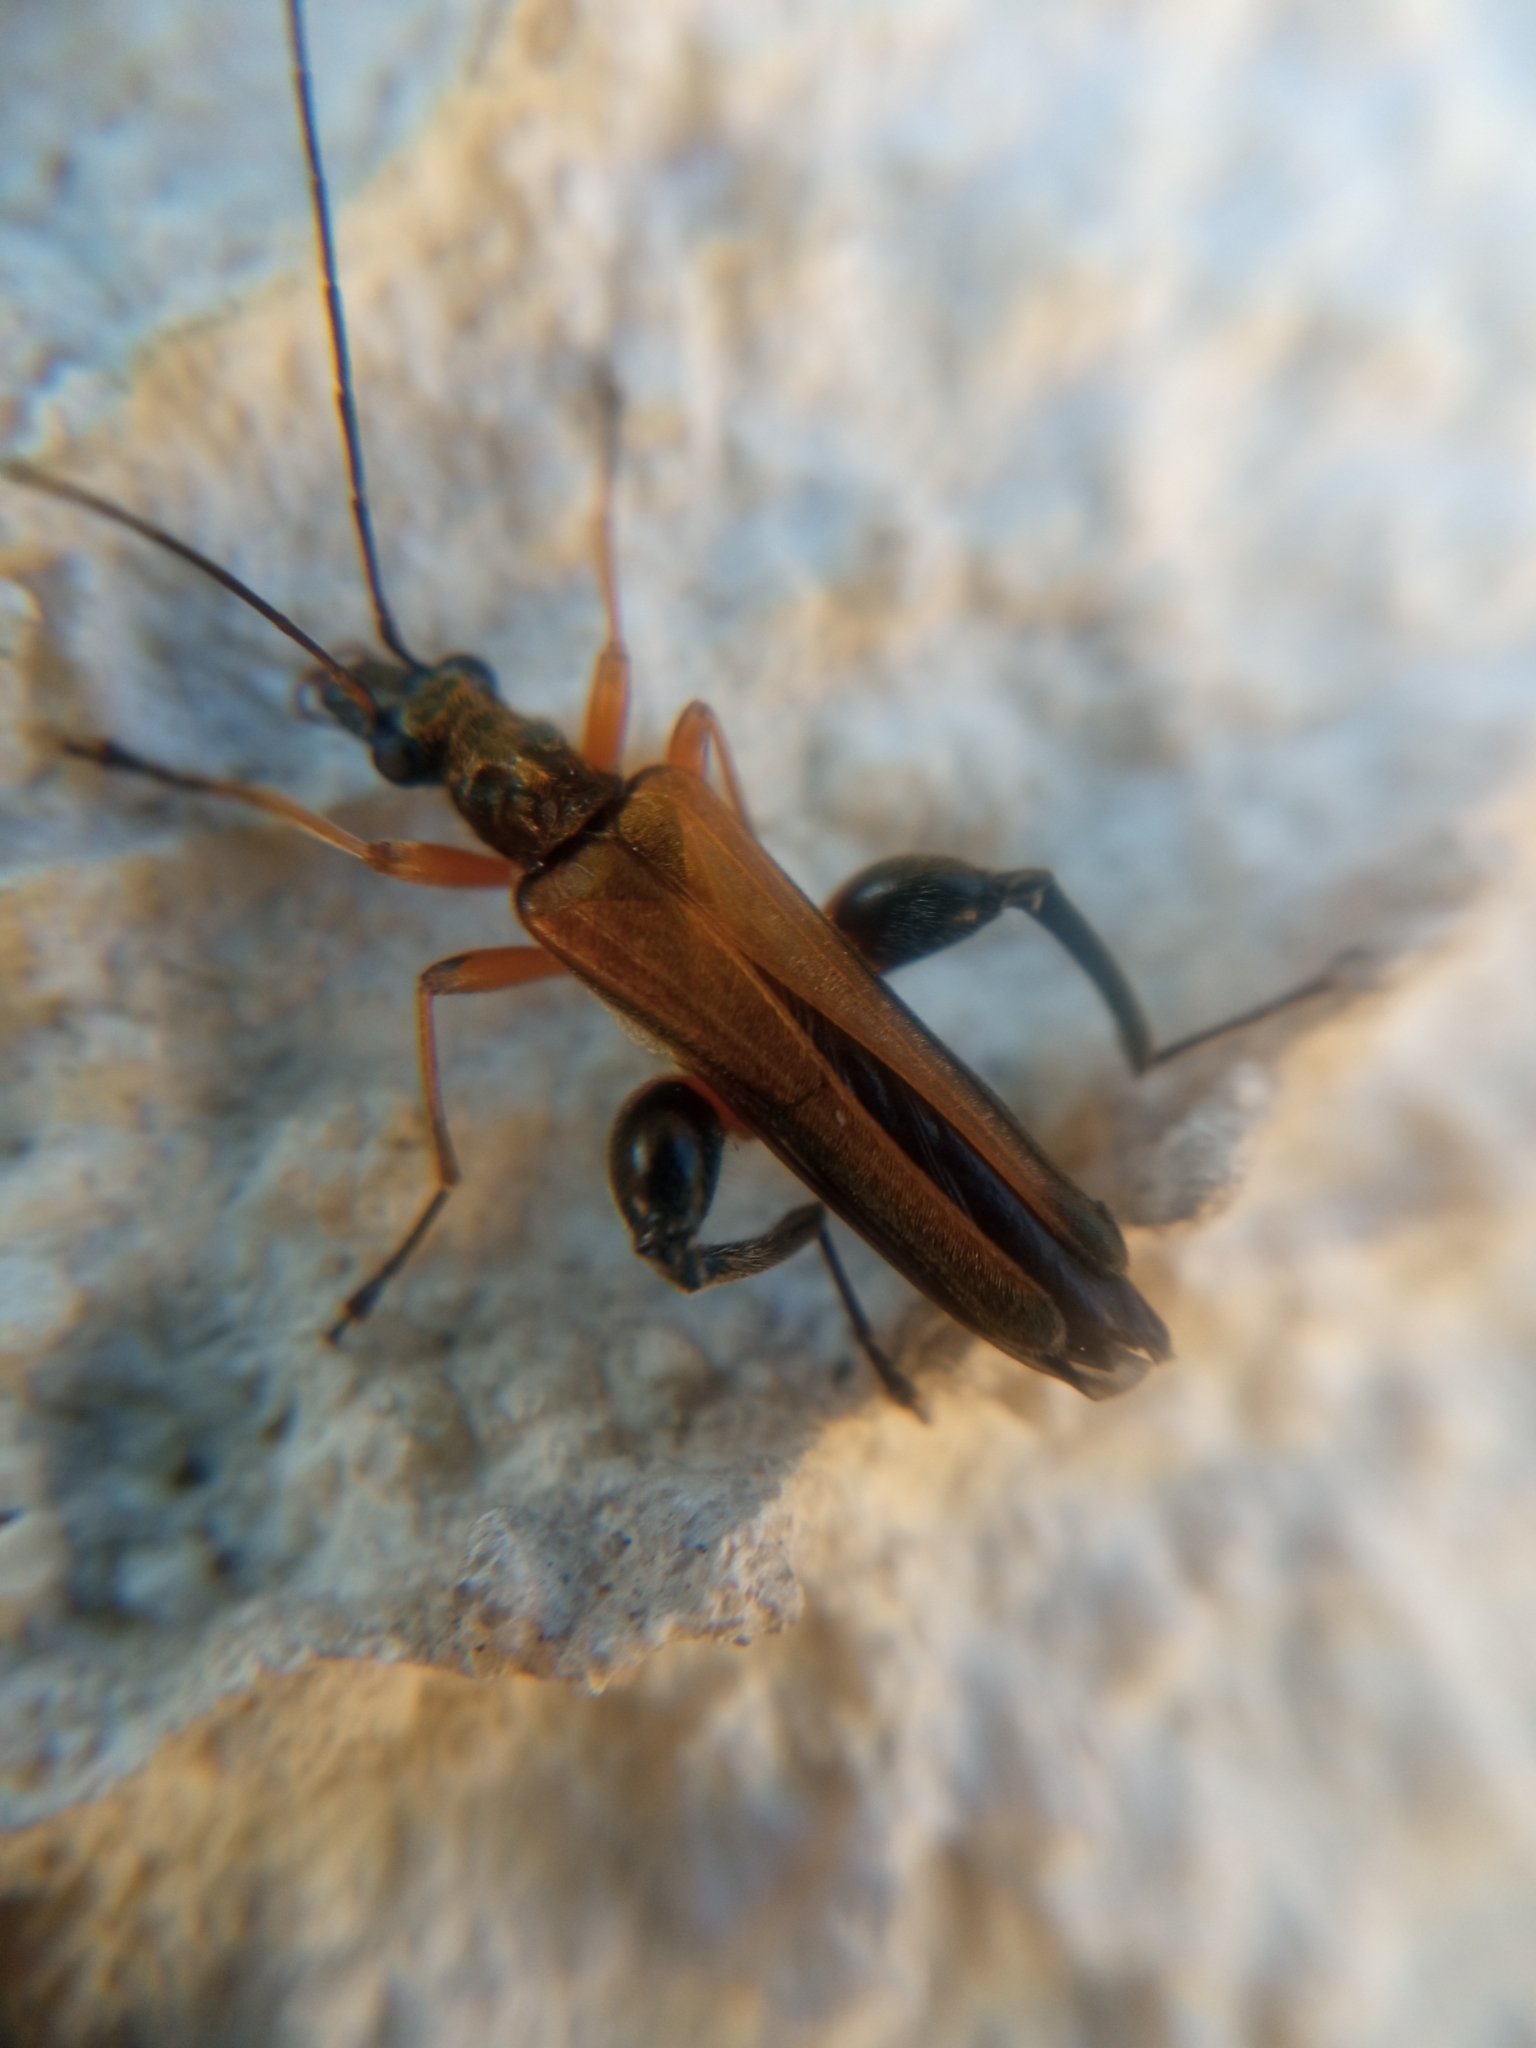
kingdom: Animalia
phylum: Arthropoda
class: Insecta
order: Coleoptera
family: Oedemeridae
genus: Oedemera
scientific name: Oedemera podagrariae
